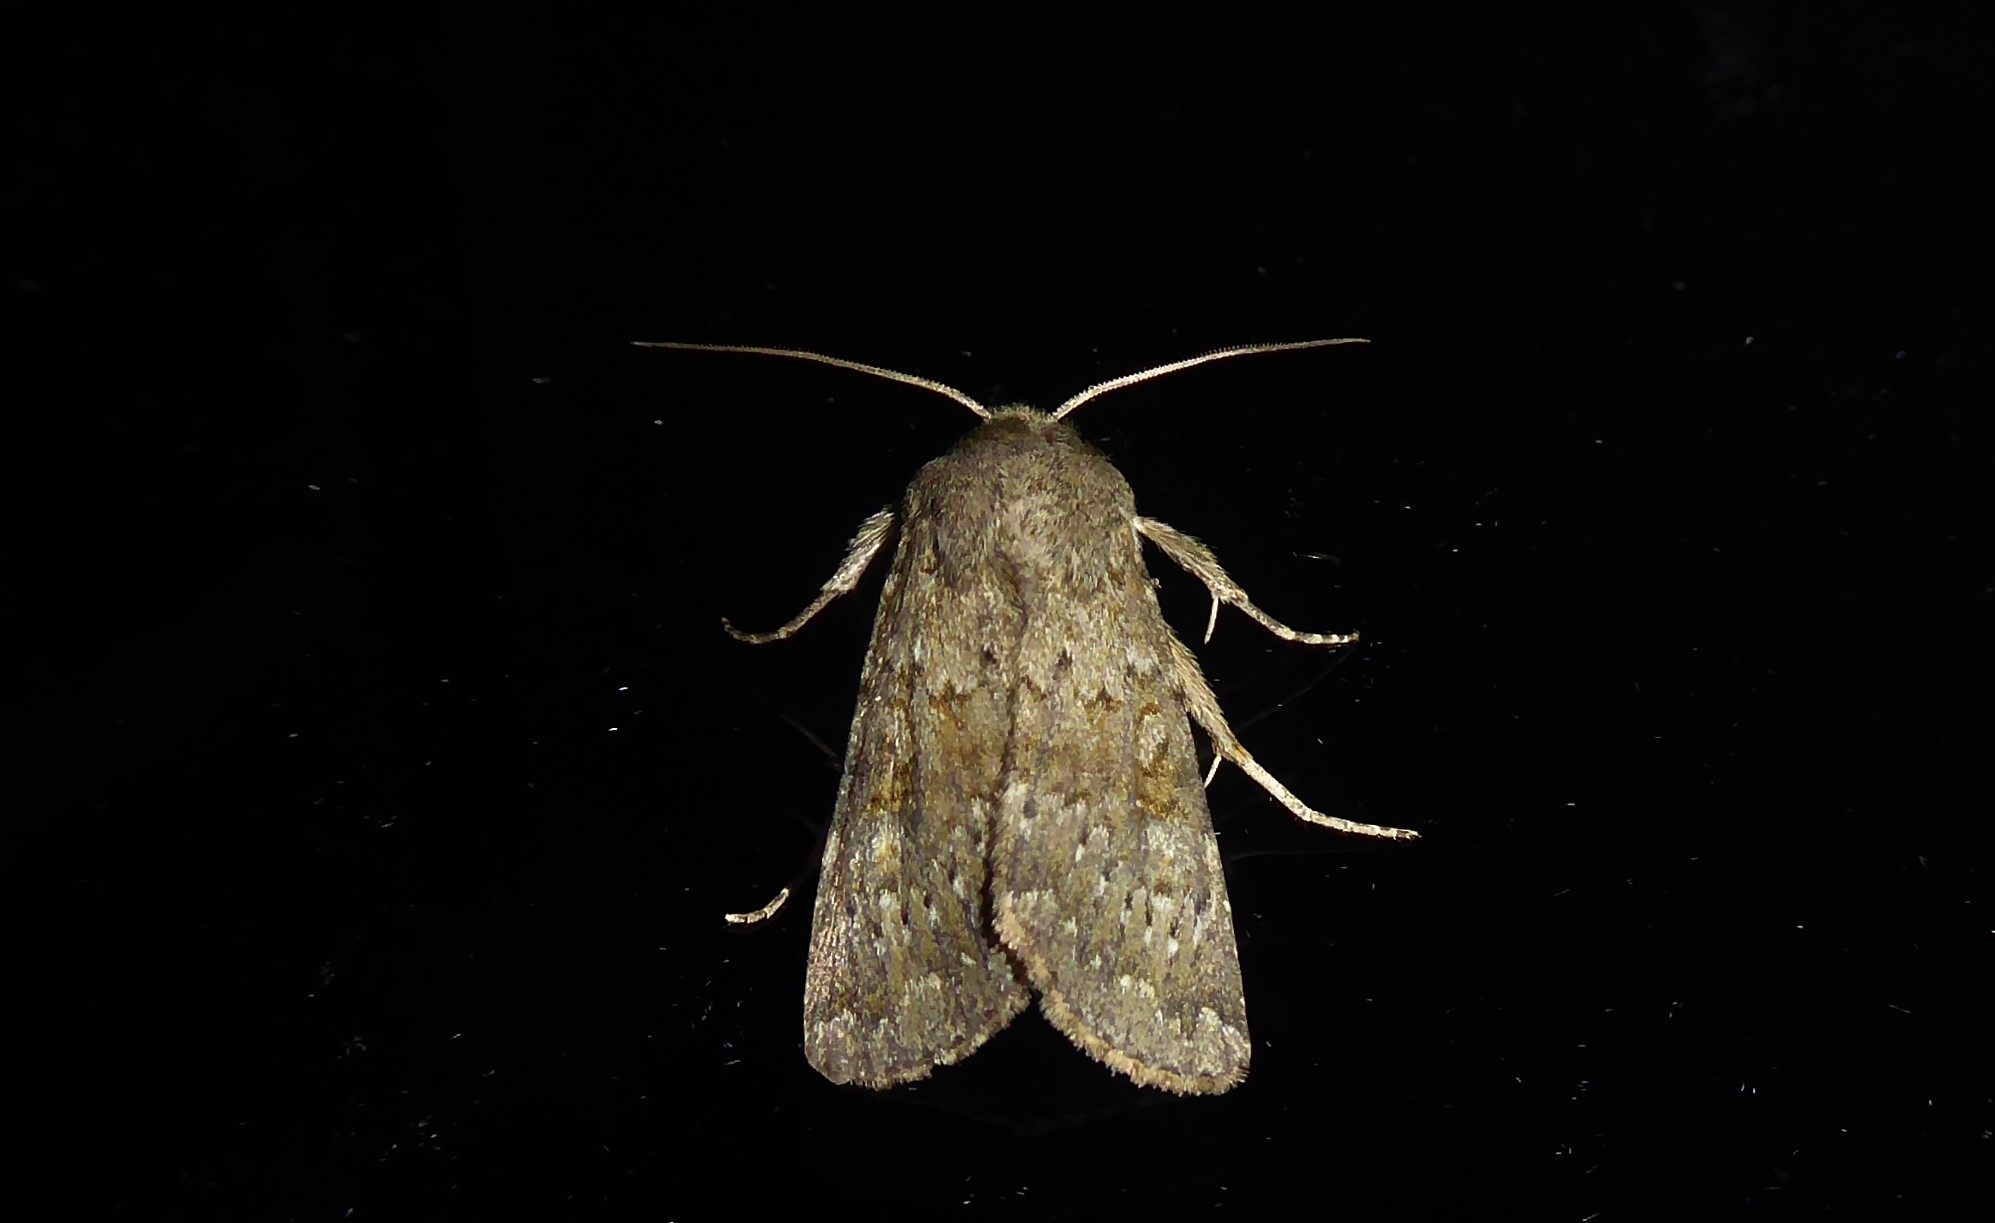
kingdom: Animalia
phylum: Arthropoda
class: Insecta
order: Lepidoptera
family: Noctuidae
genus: Ichneutica
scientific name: Ichneutica moderata
